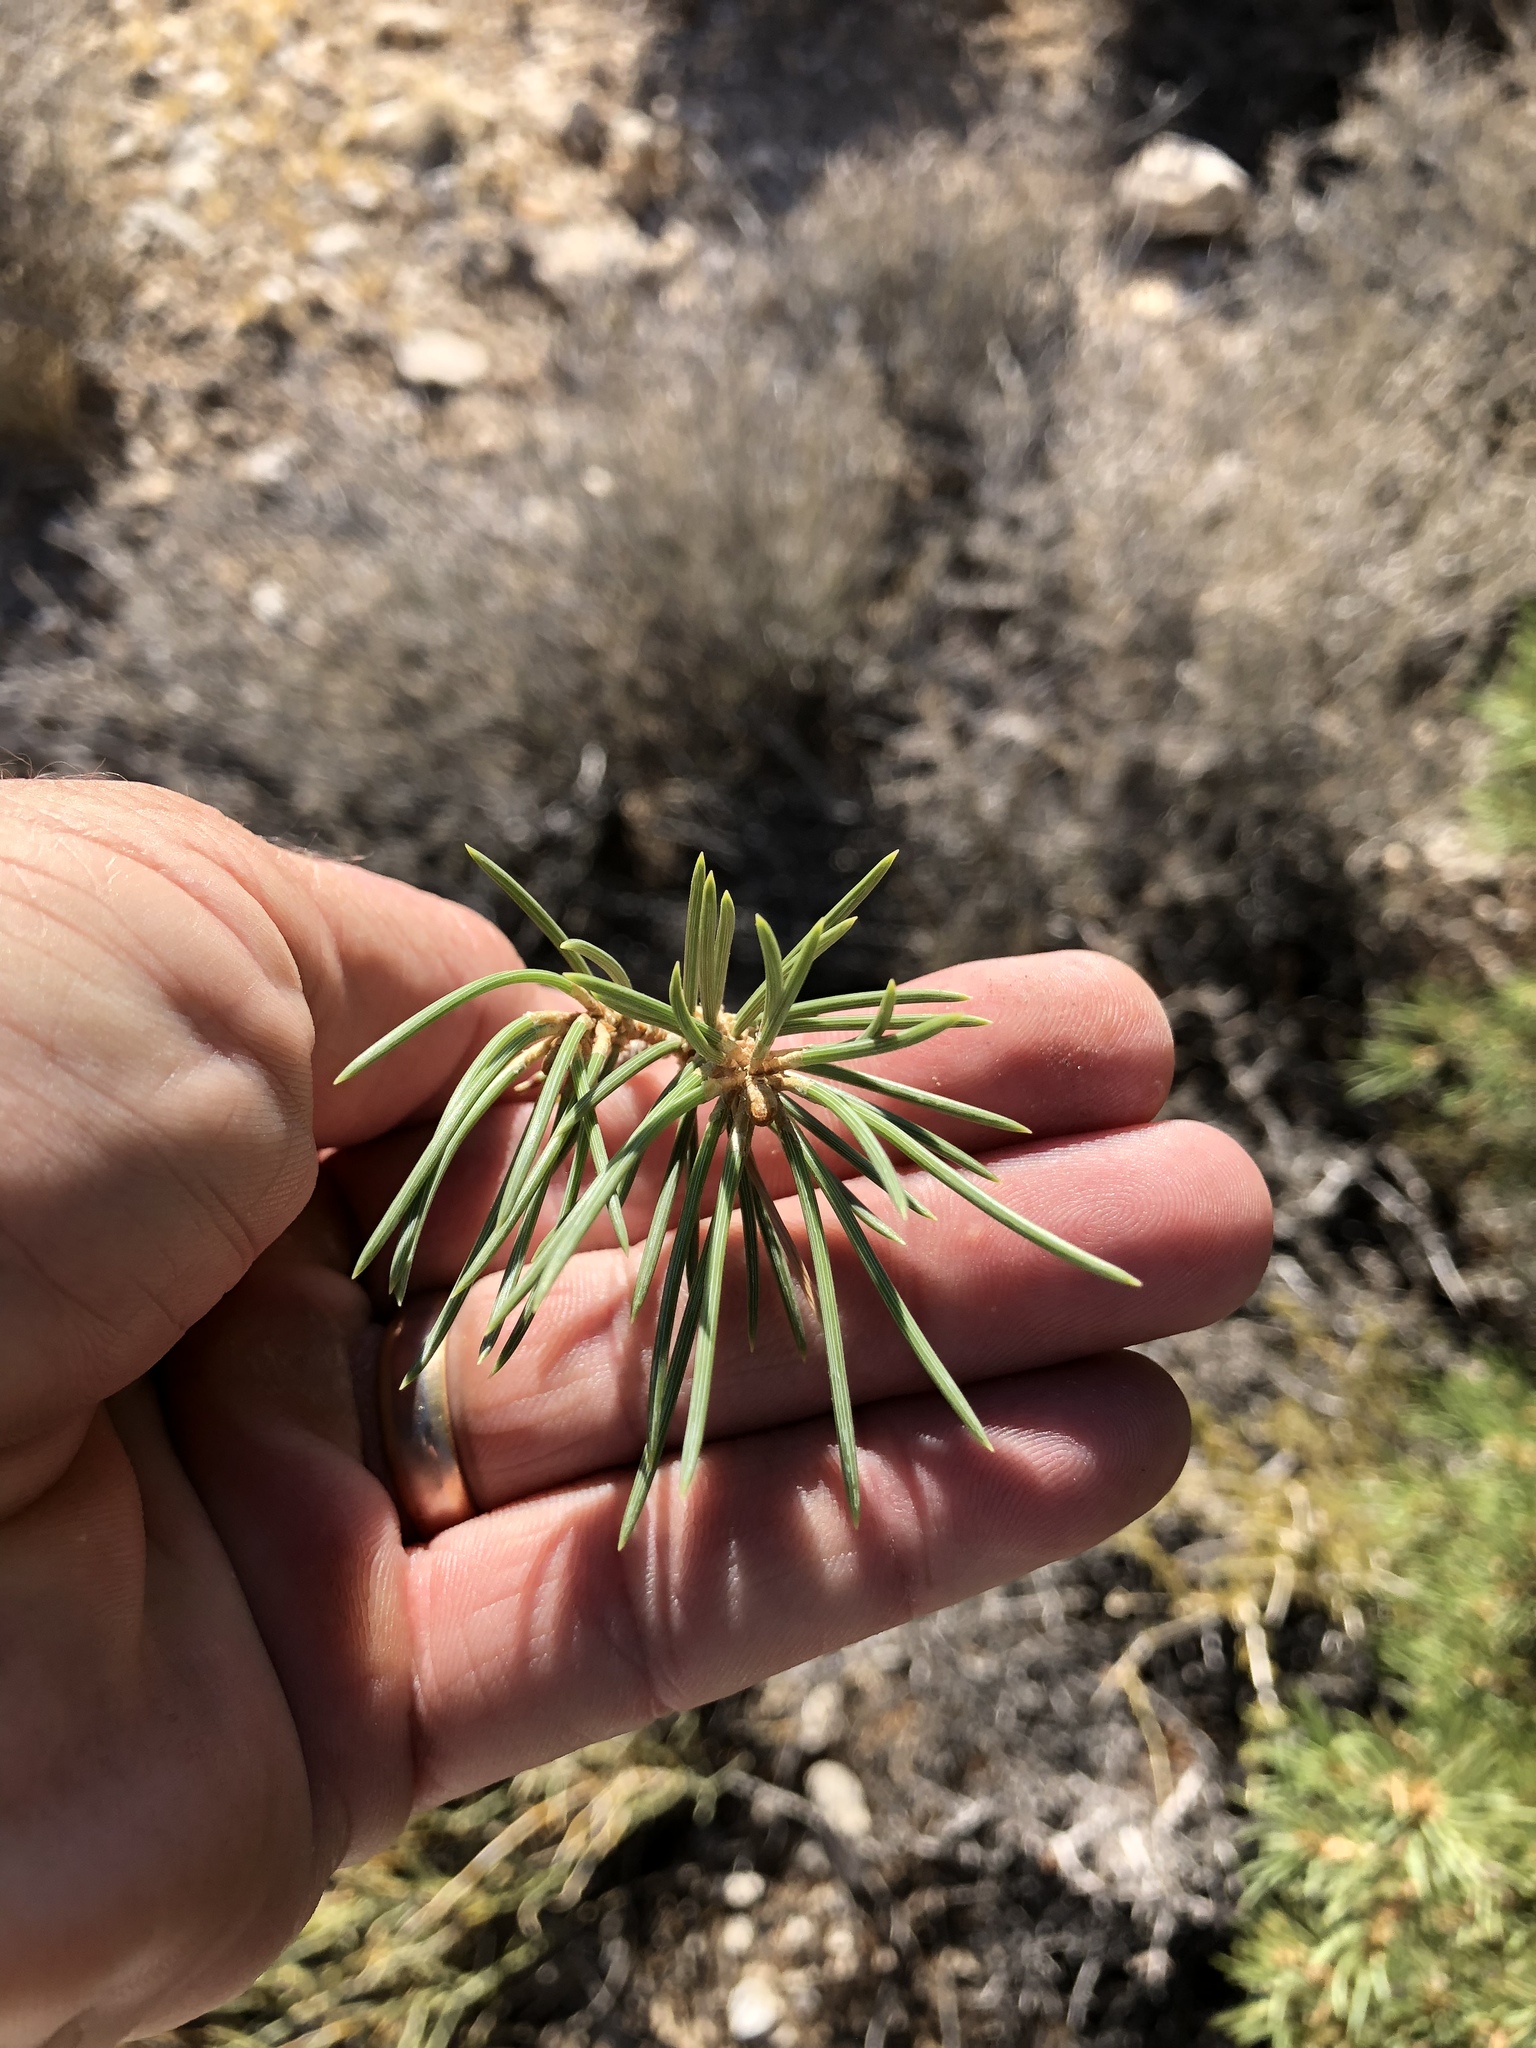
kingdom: Plantae
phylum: Tracheophyta
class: Pinopsida
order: Pinales
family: Pinaceae
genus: Pinus
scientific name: Pinus monophylla
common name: One-leaved nut pine
